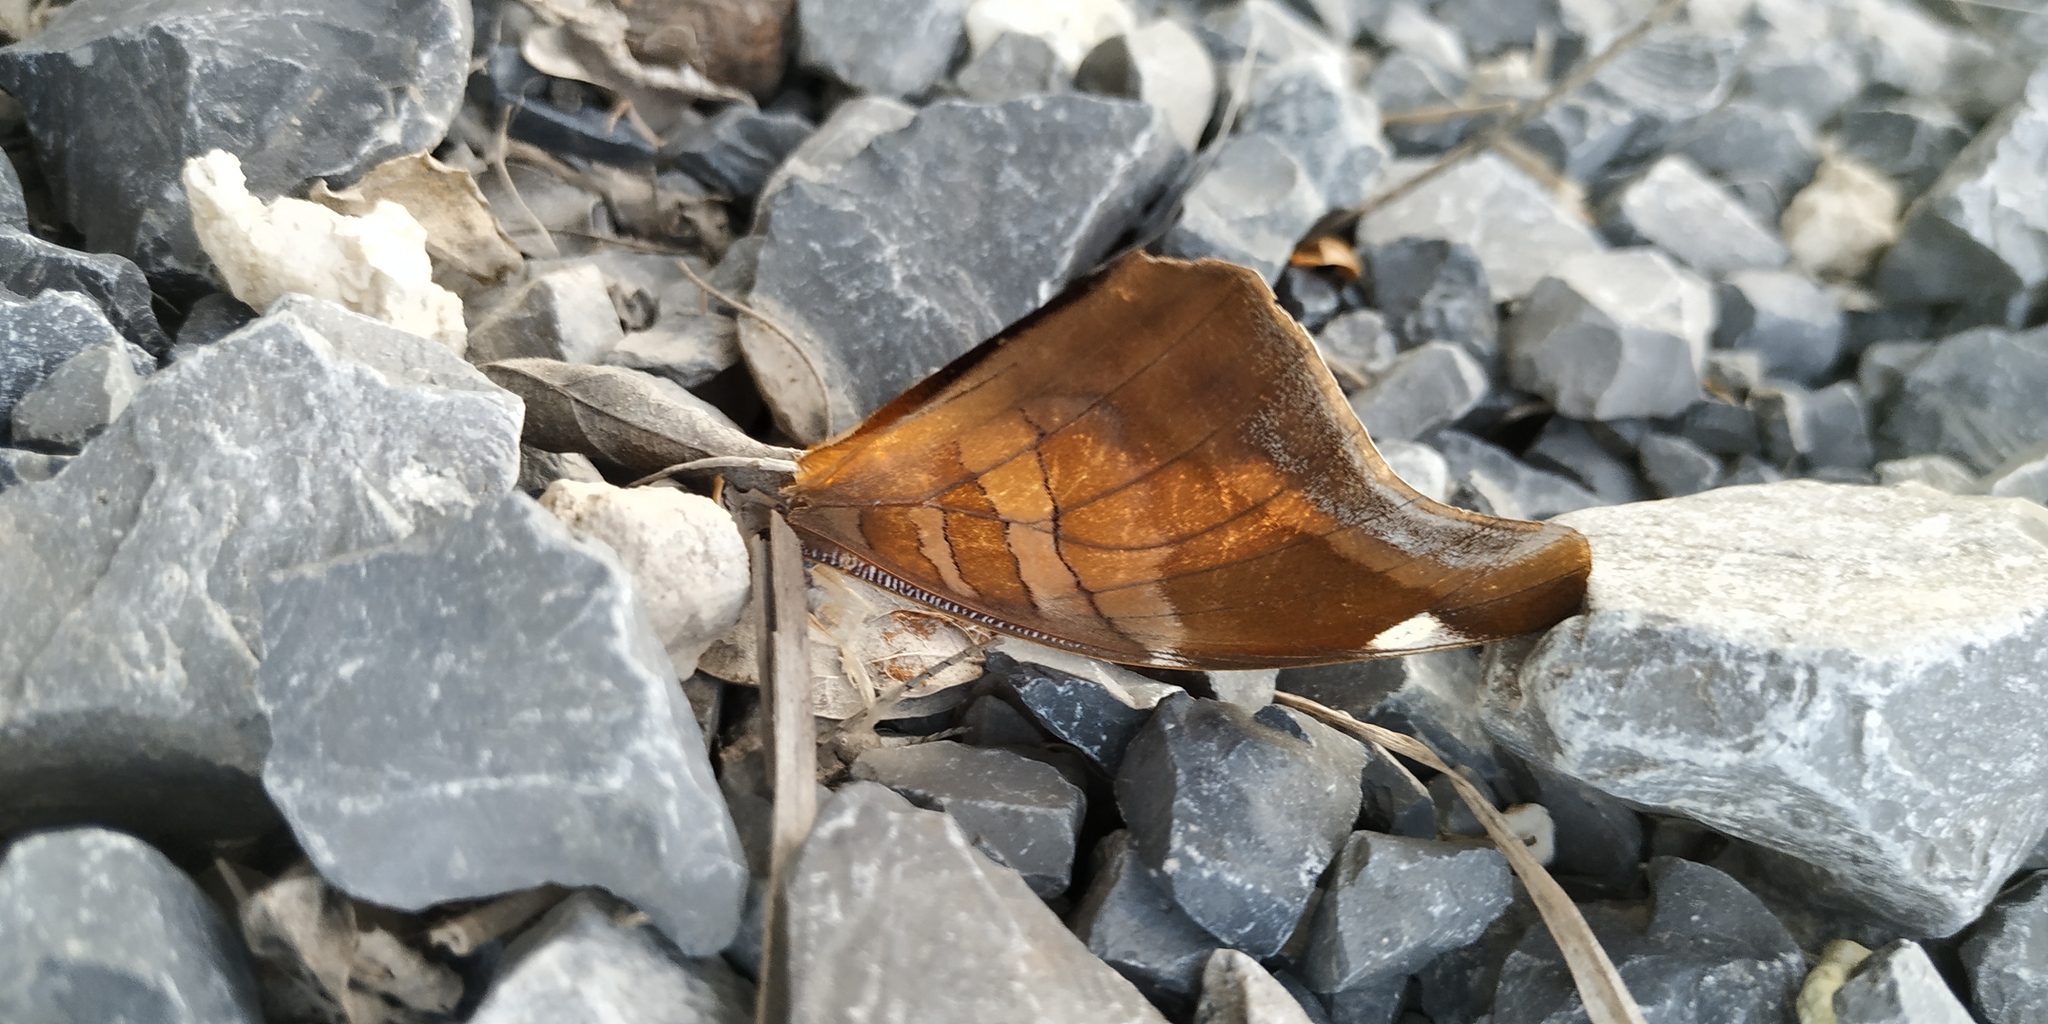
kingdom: Animalia
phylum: Arthropoda
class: Insecta
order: Lepidoptera
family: Nymphalidae
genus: Historis
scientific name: Historis odius
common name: Orion cecropian
